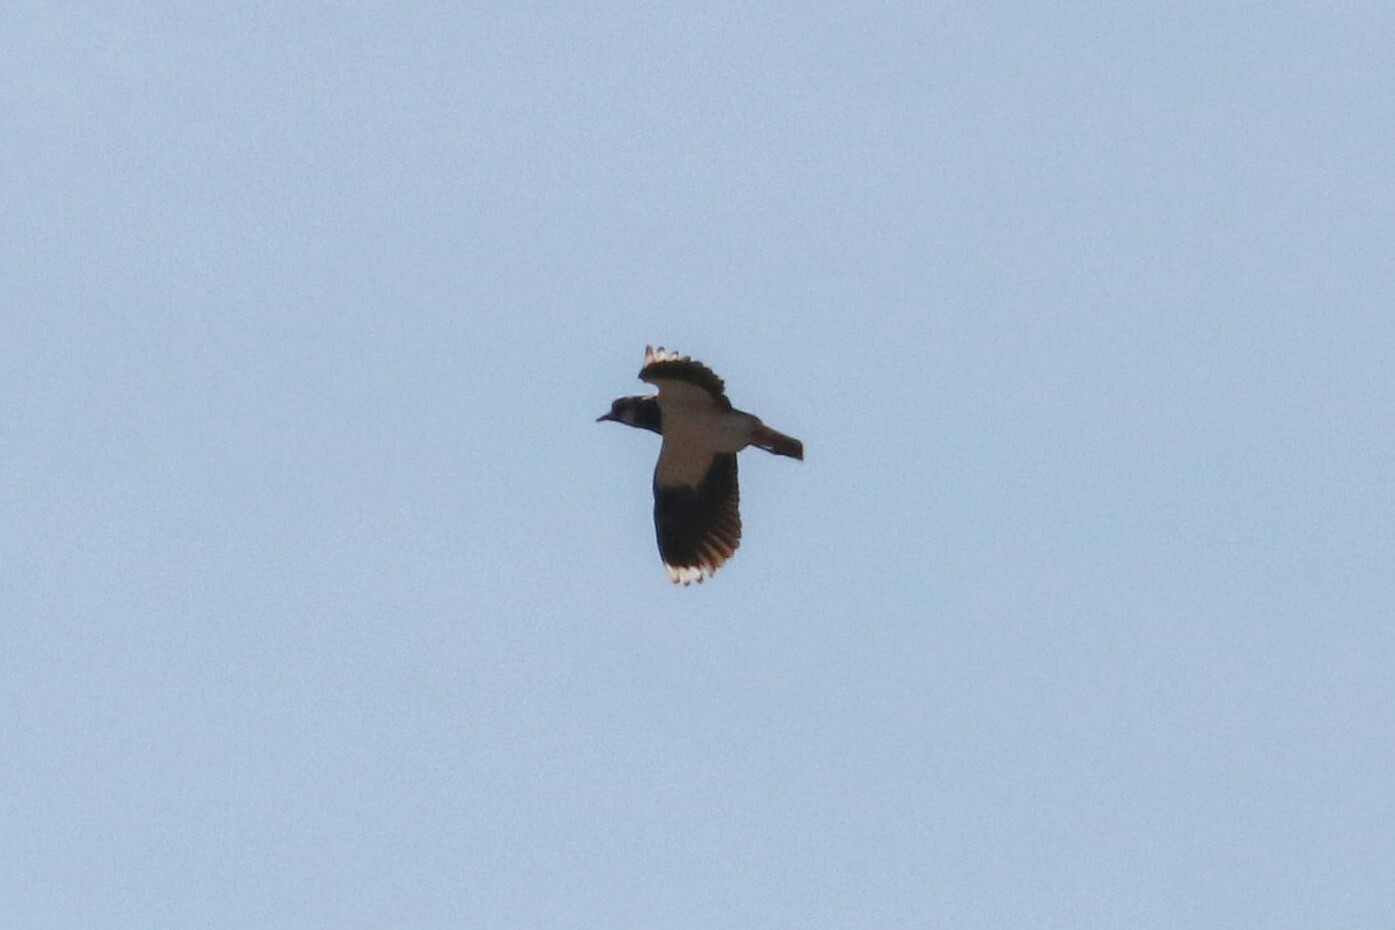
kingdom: Animalia
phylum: Chordata
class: Aves
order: Charadriiformes
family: Charadriidae
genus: Vanellus
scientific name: Vanellus vanellus
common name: Northern lapwing
